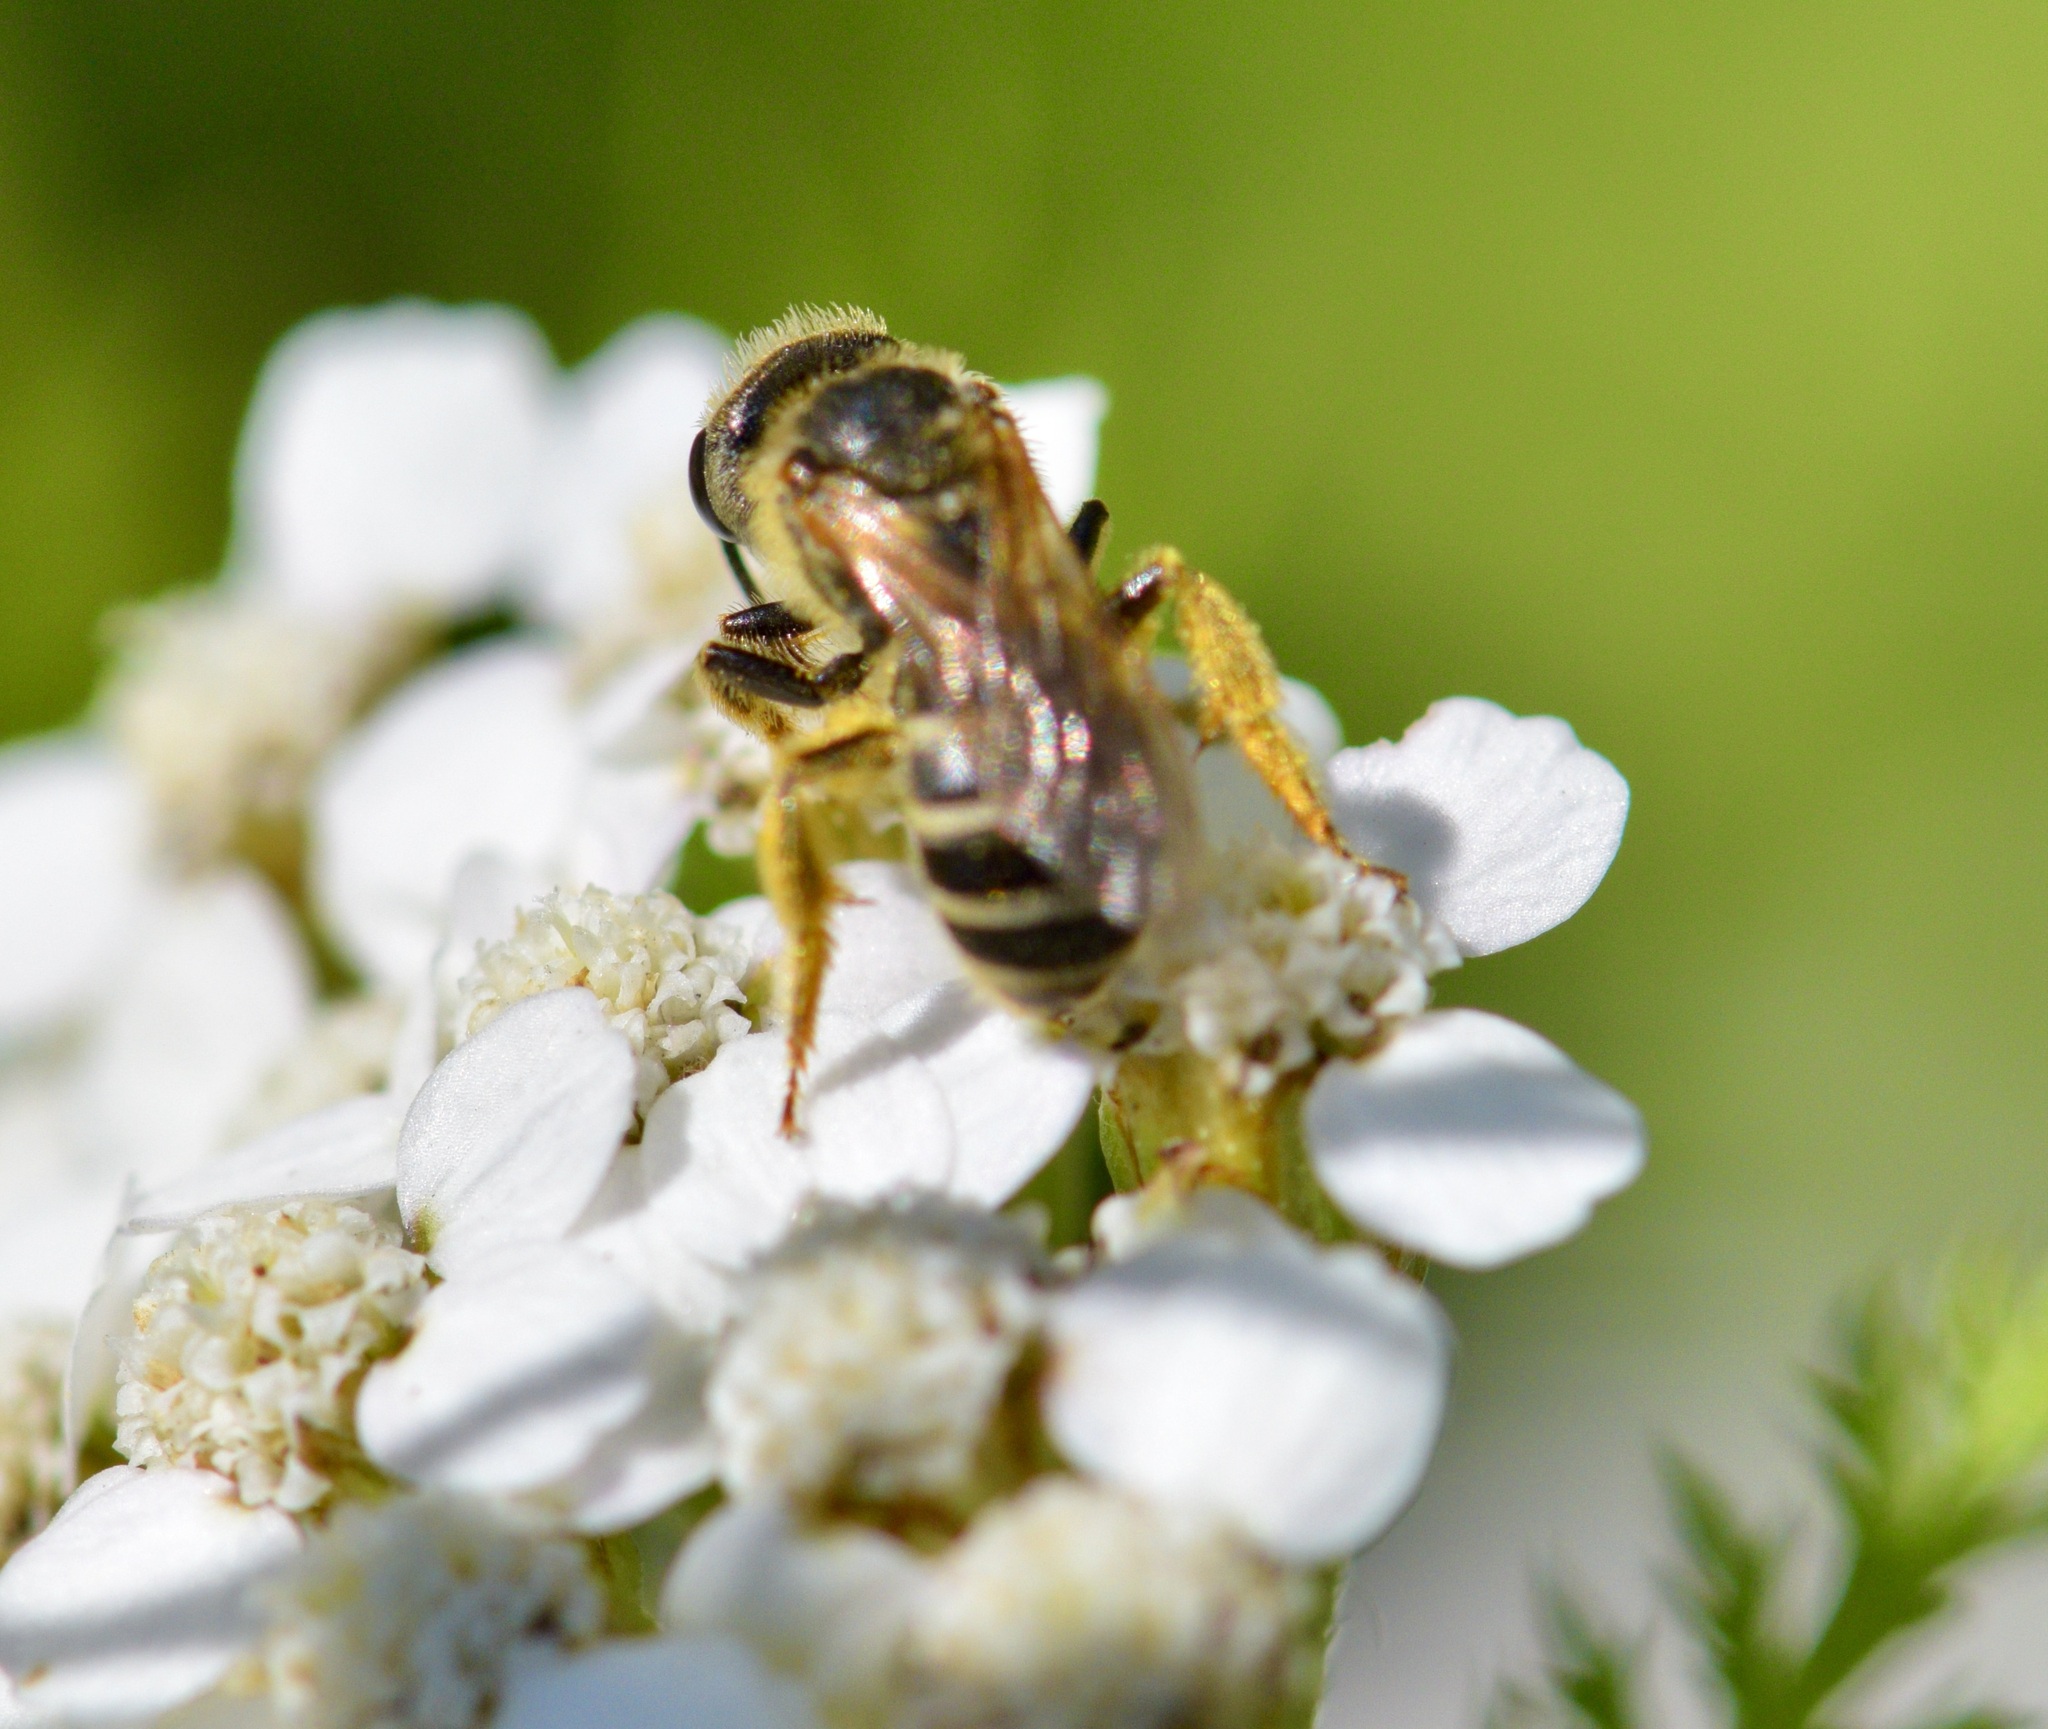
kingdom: Animalia
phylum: Arthropoda
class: Insecta
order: Hymenoptera
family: Halictidae
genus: Halictus
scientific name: Halictus ligatus
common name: Ligated furrow bee
